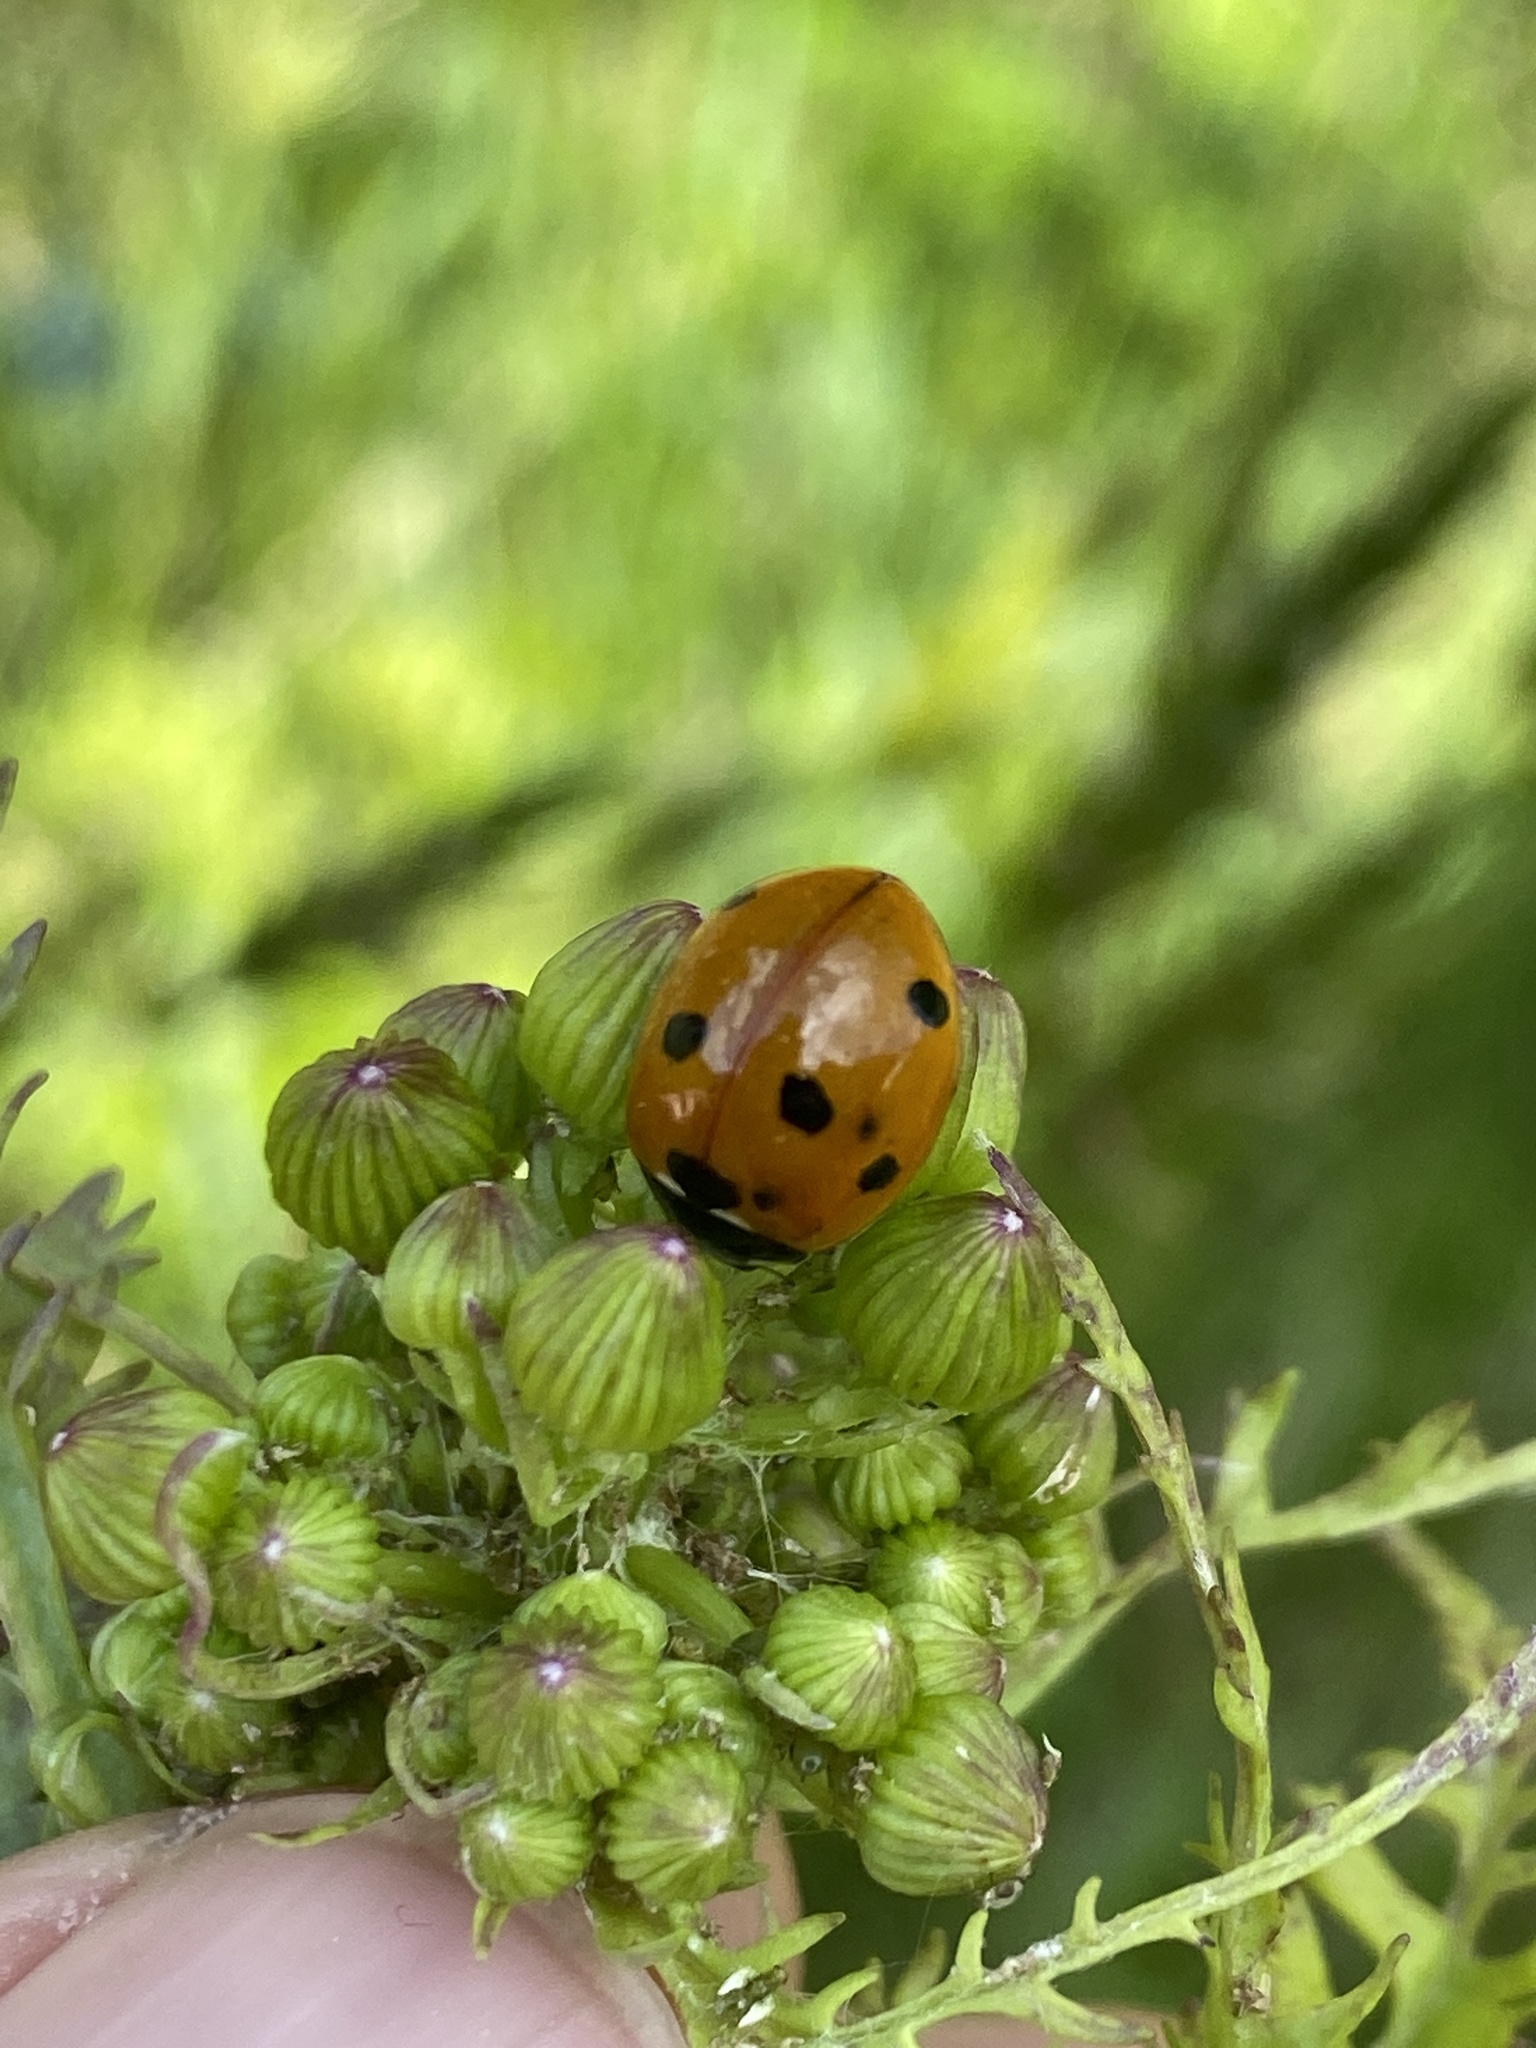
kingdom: Animalia
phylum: Arthropoda
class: Insecta
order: Coleoptera
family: Coccinellidae
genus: Coccinella
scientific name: Coccinella septempunctata
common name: Sevenspotted lady beetle
